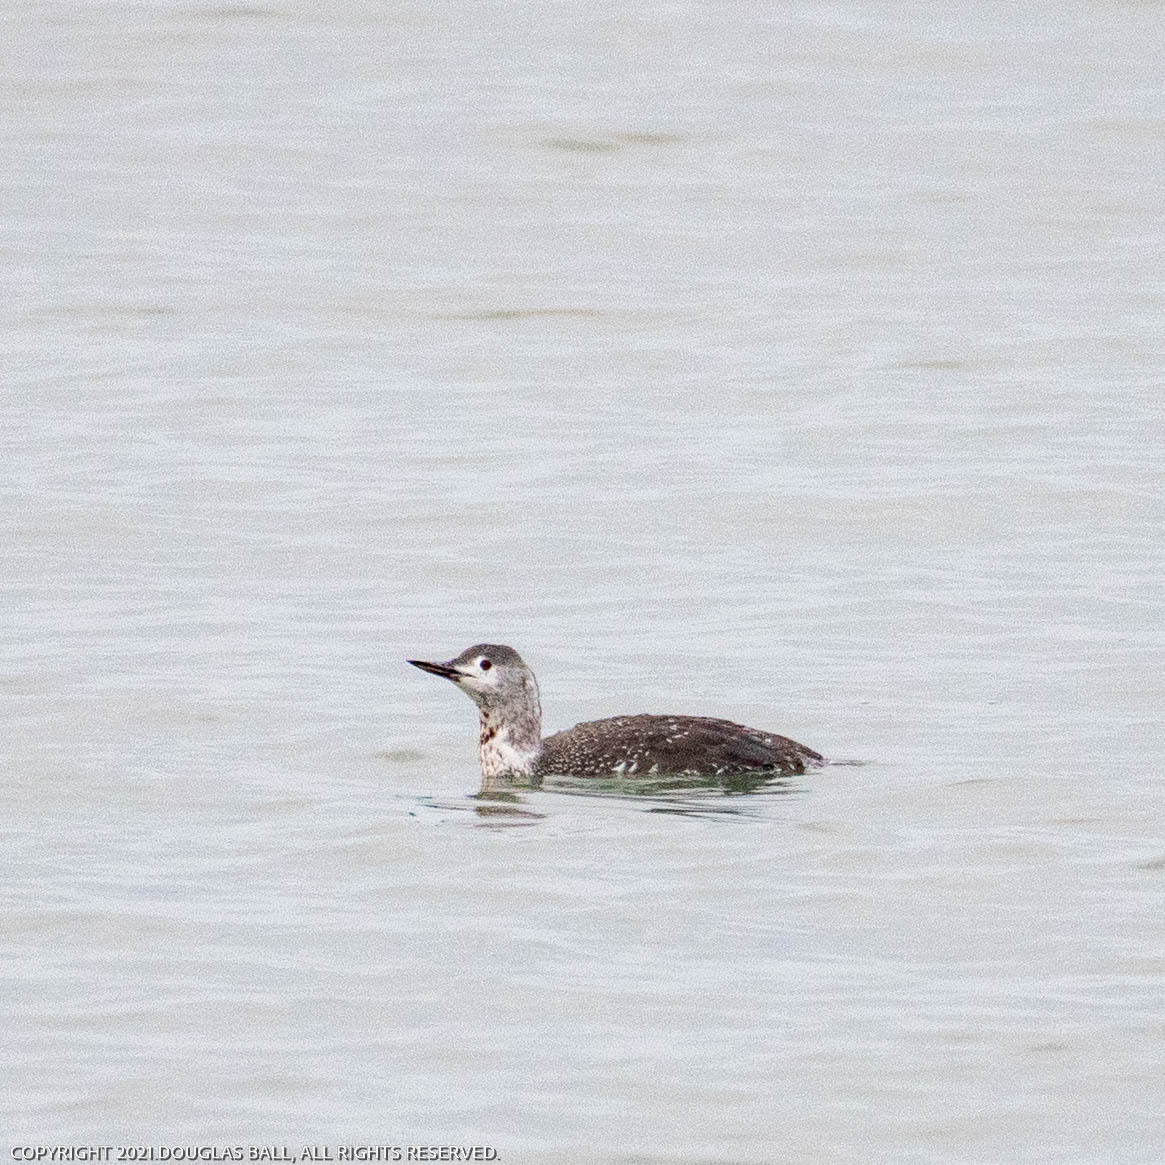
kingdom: Animalia
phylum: Chordata
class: Aves
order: Gaviiformes
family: Gaviidae
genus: Gavia
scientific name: Gavia stellata
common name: Red-throated loon
